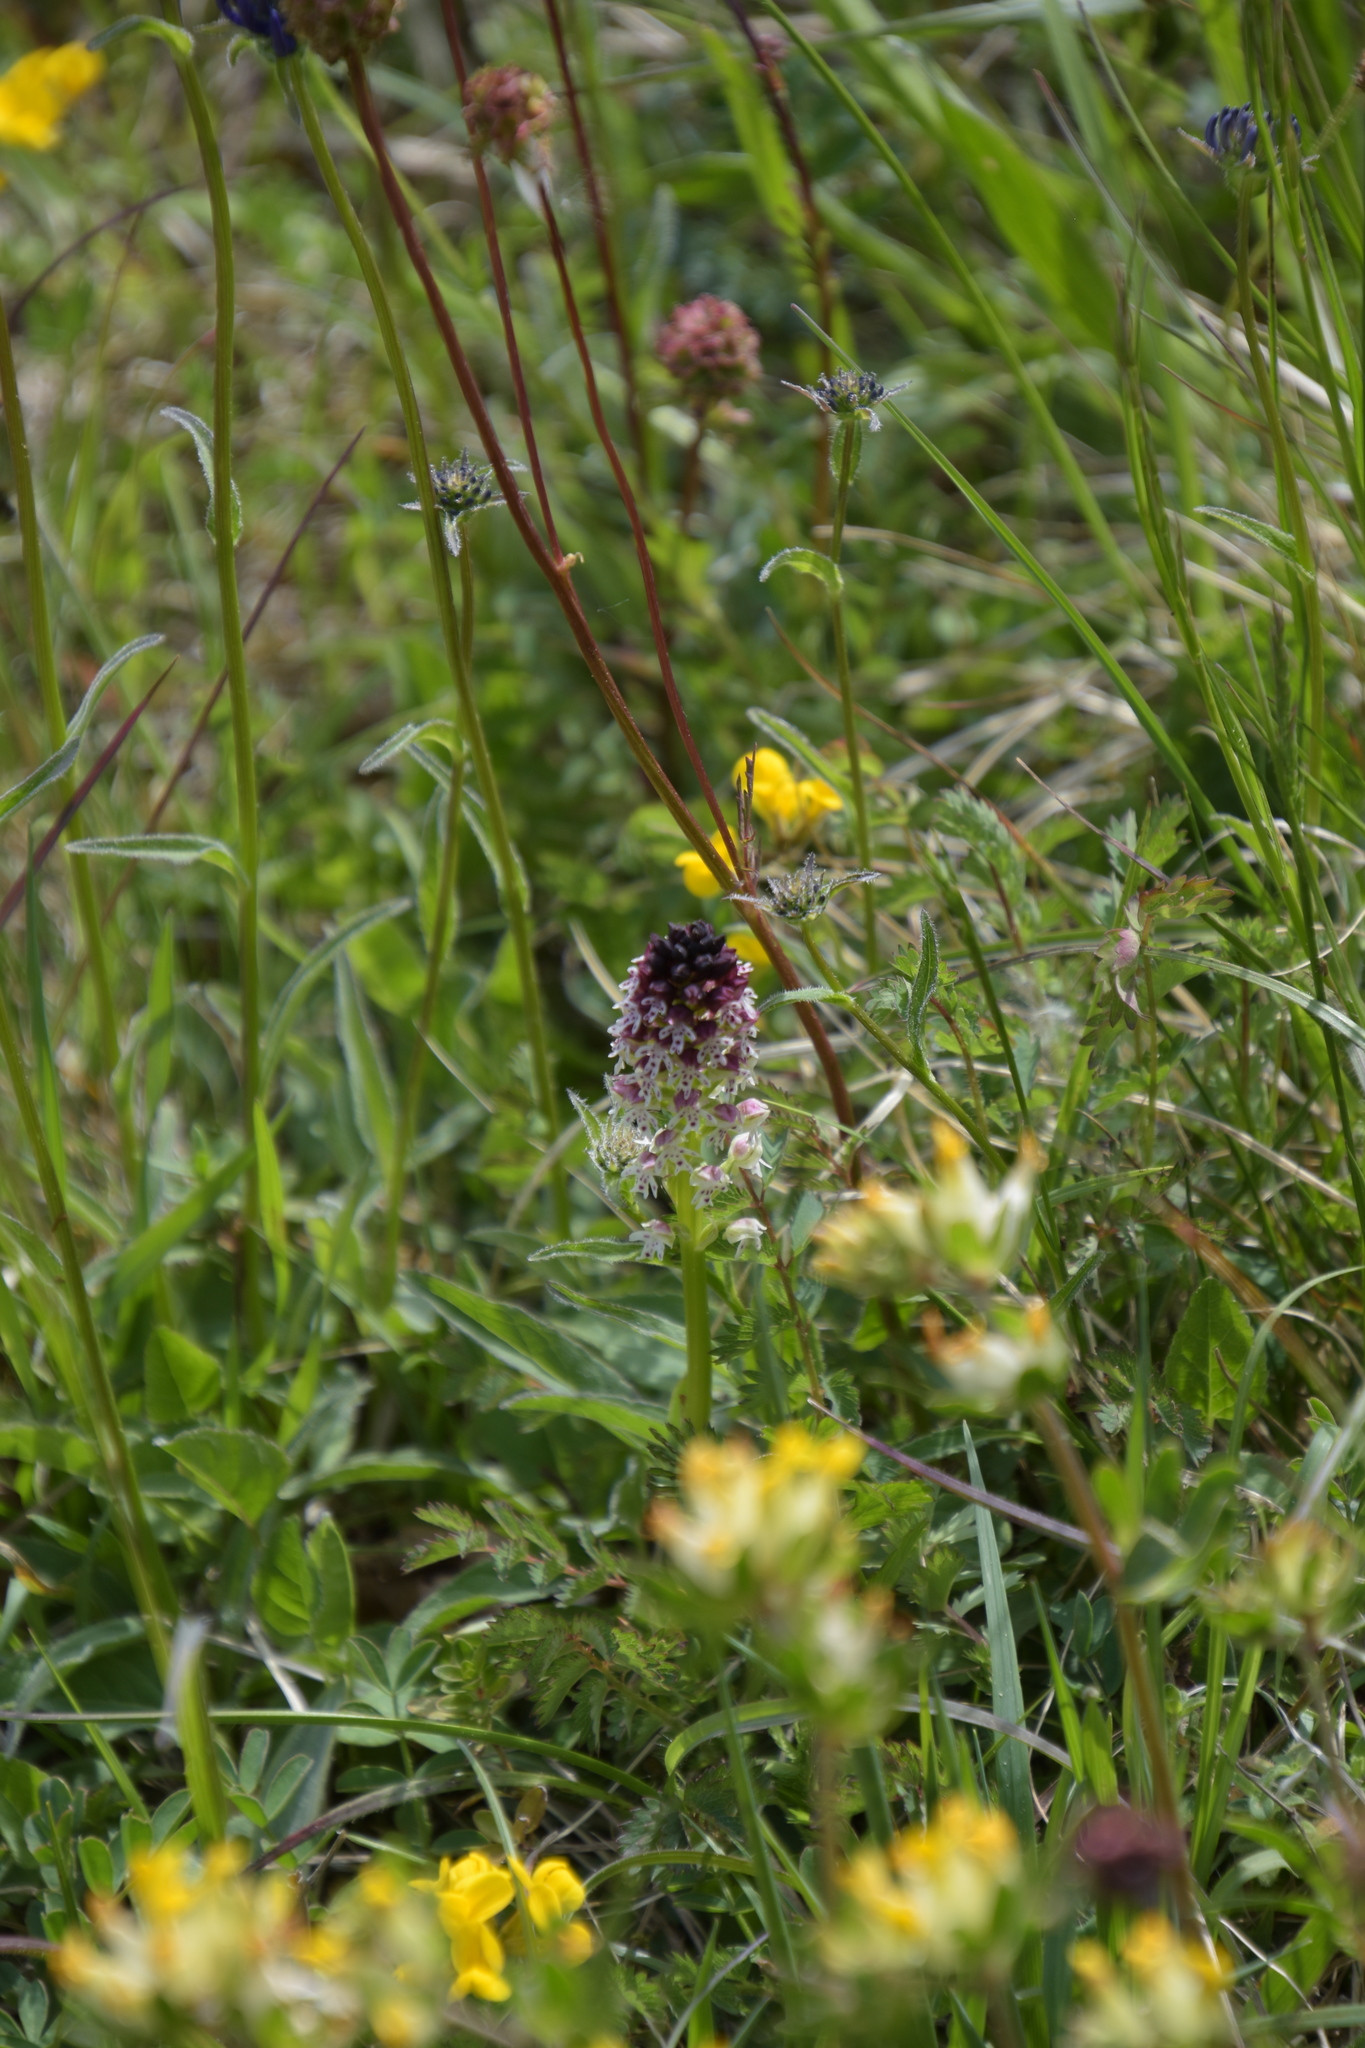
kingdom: Plantae
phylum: Tracheophyta
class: Liliopsida
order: Asparagales
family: Orchidaceae
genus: Neotinea
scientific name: Neotinea ustulata
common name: Burnt orchid
